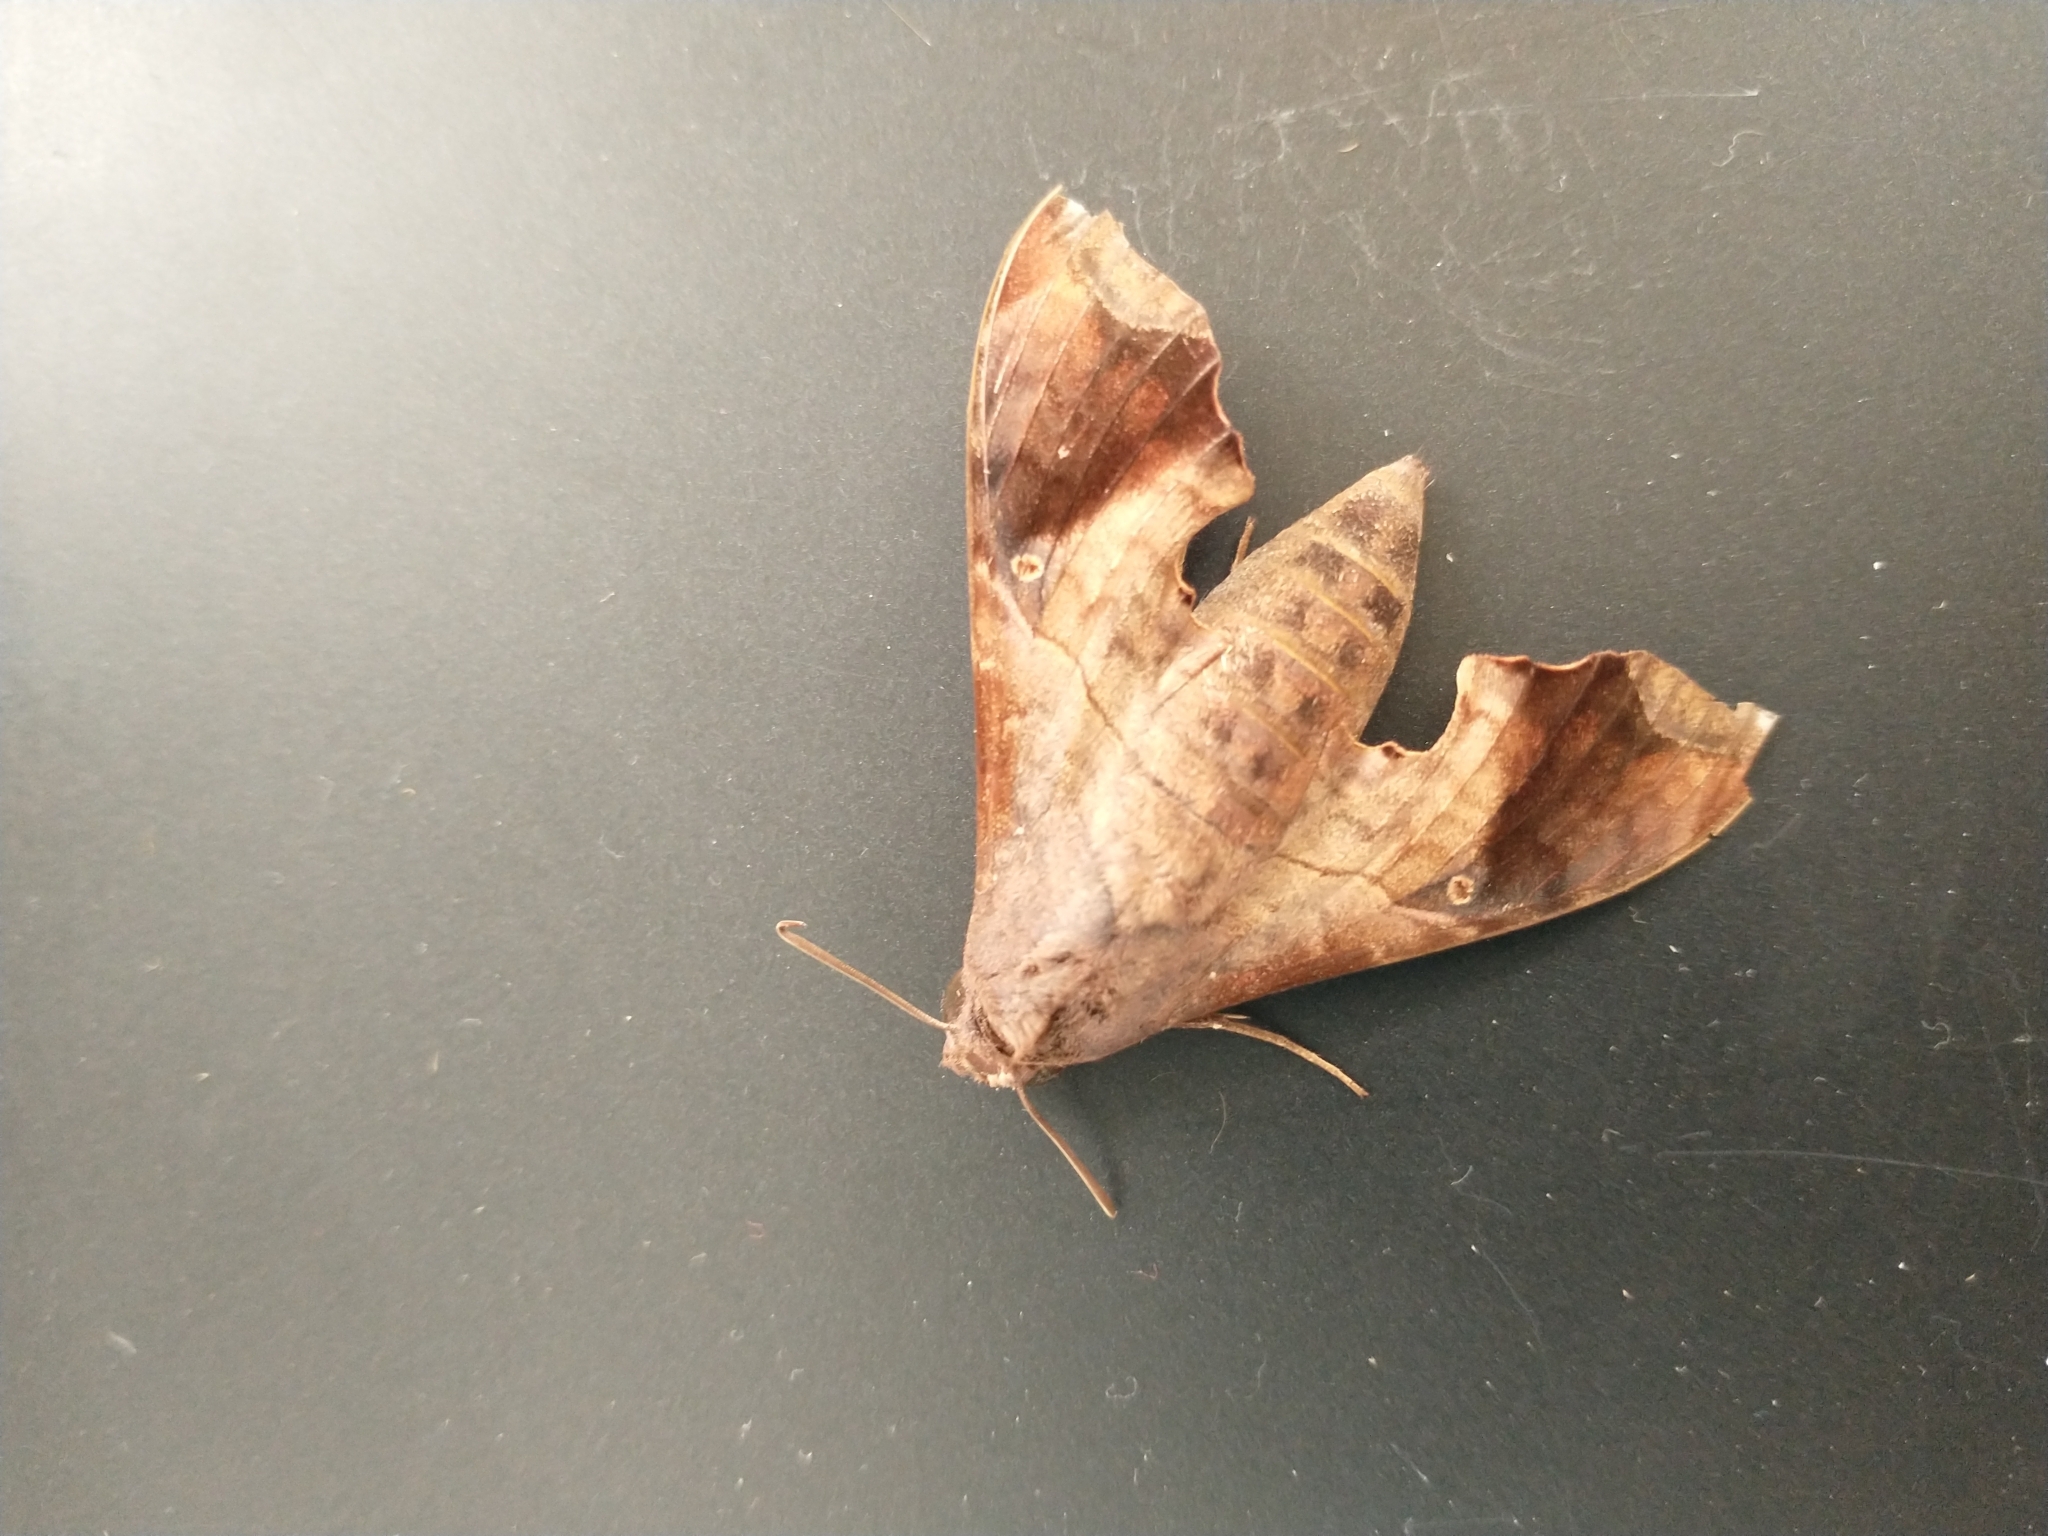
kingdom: Animalia
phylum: Arthropoda
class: Insecta
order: Lepidoptera
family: Sphingidae
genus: Enyo
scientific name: Enyo lugubris
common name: Mournful sphinx
